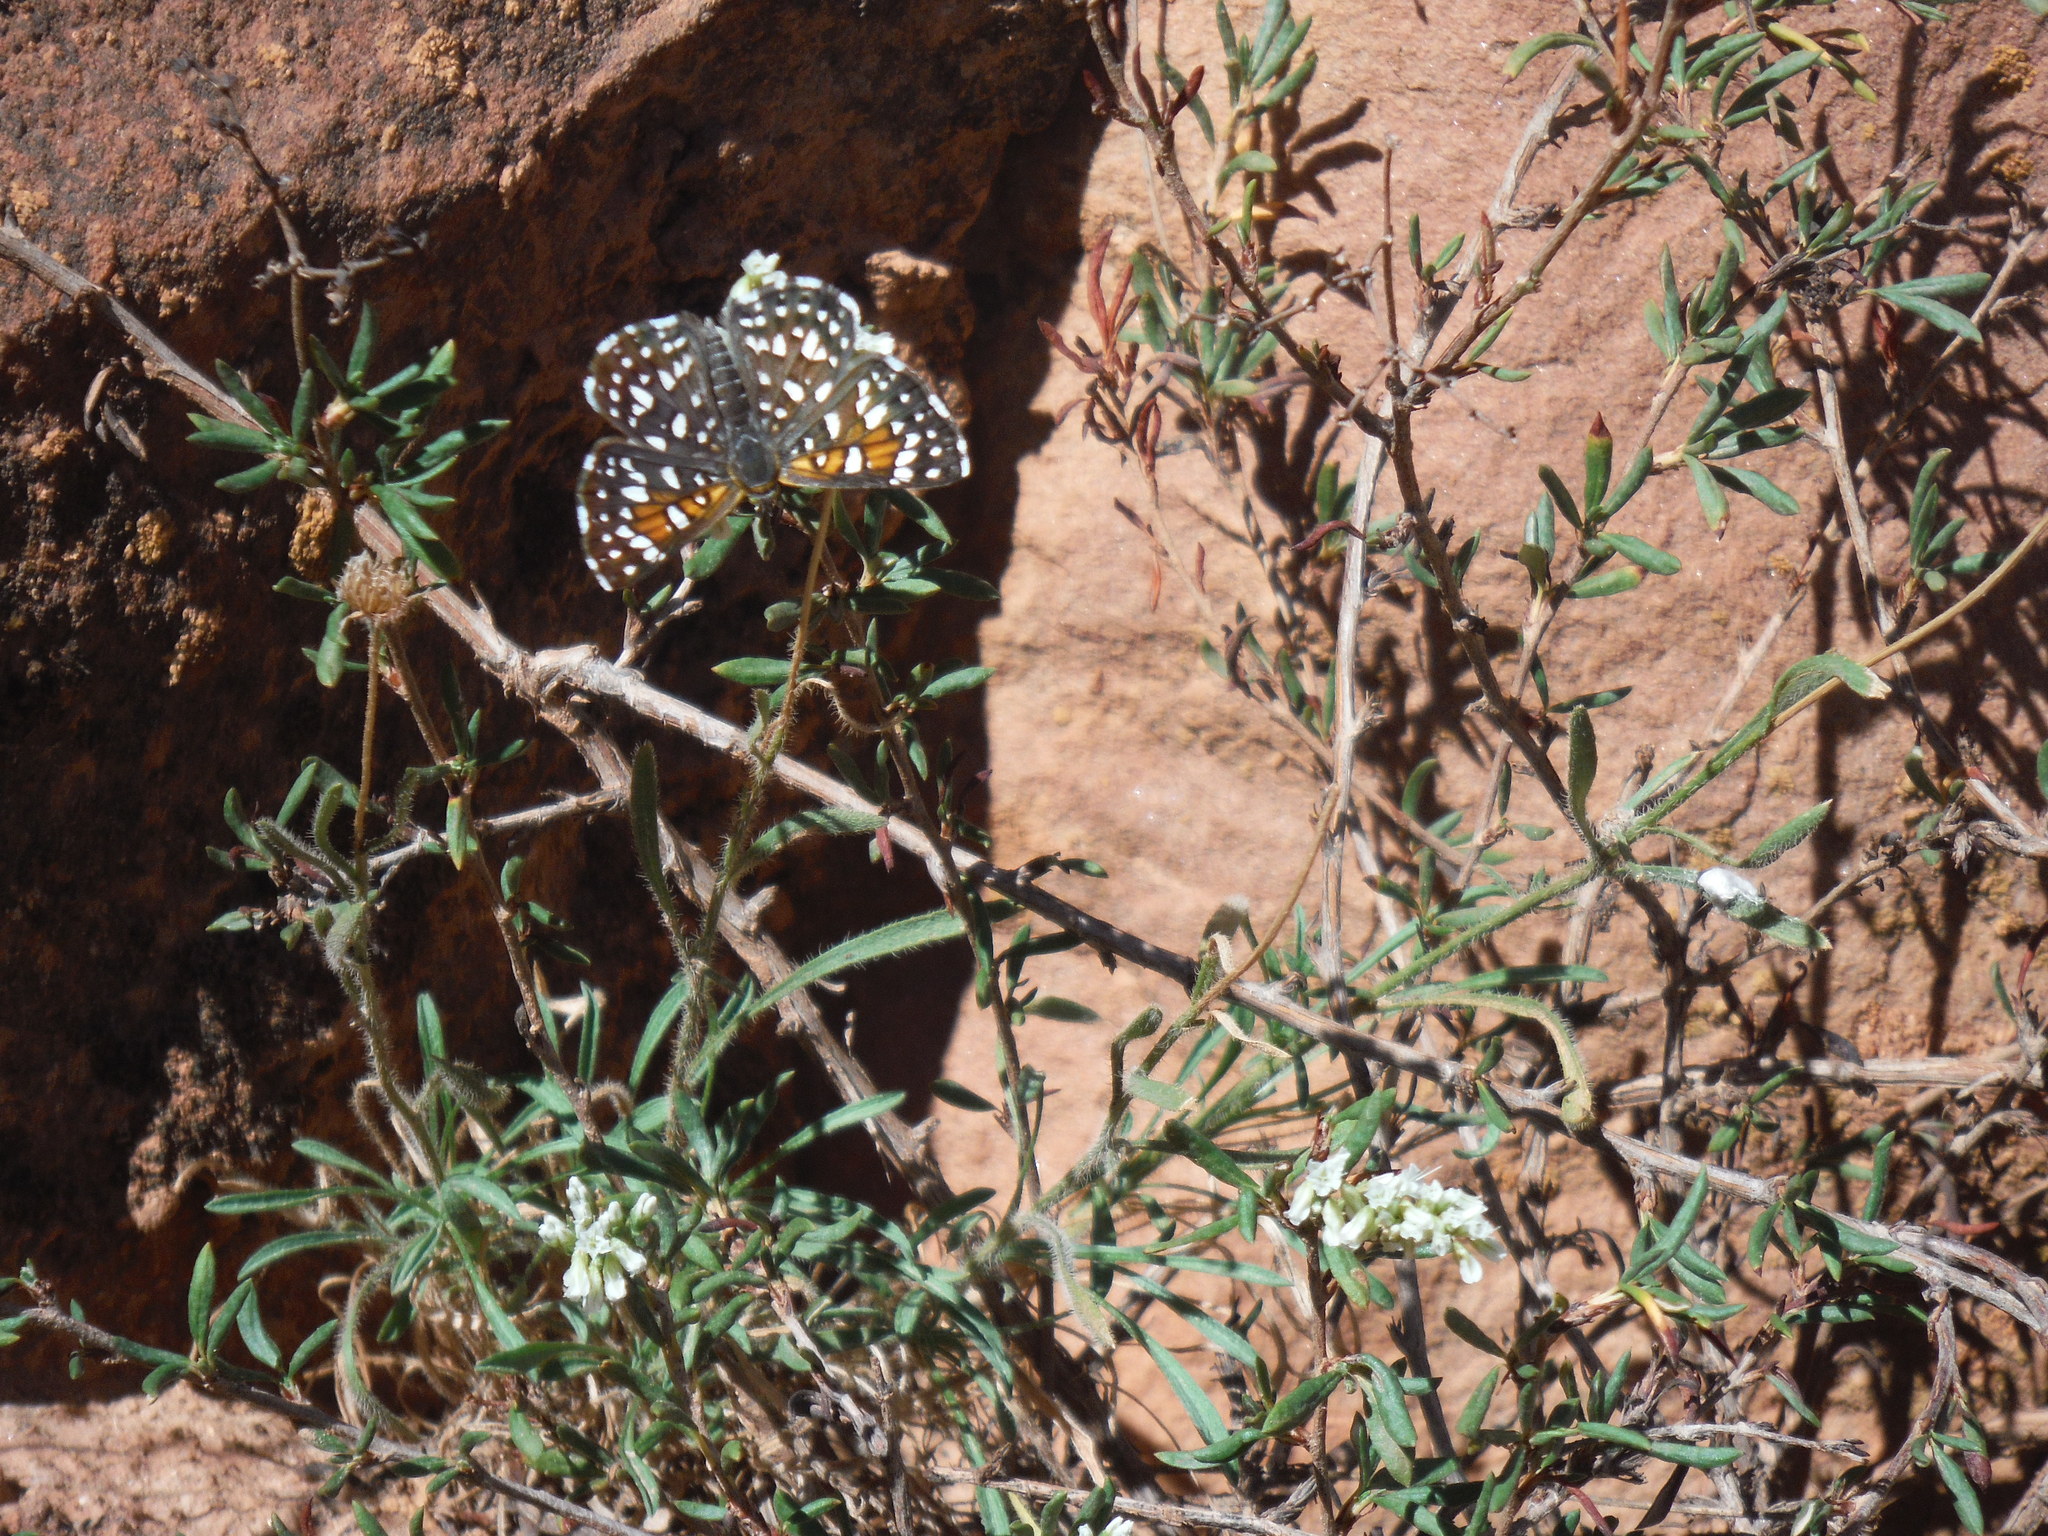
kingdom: Animalia
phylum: Arthropoda
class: Insecta
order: Lepidoptera
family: Riodinidae
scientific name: Riodinidae
